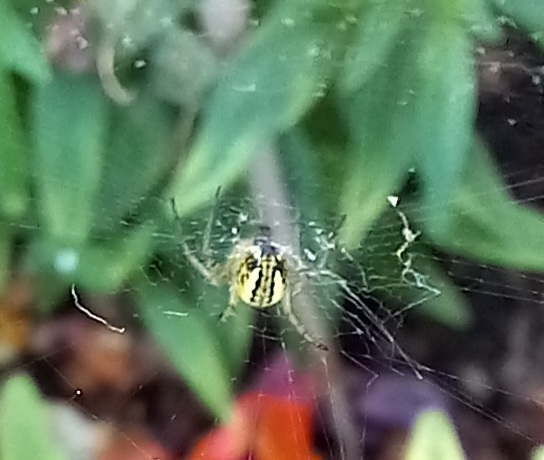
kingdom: Animalia
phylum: Arthropoda
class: Arachnida
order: Araneae
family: Araneidae
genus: Mangora
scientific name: Mangora acalypha
